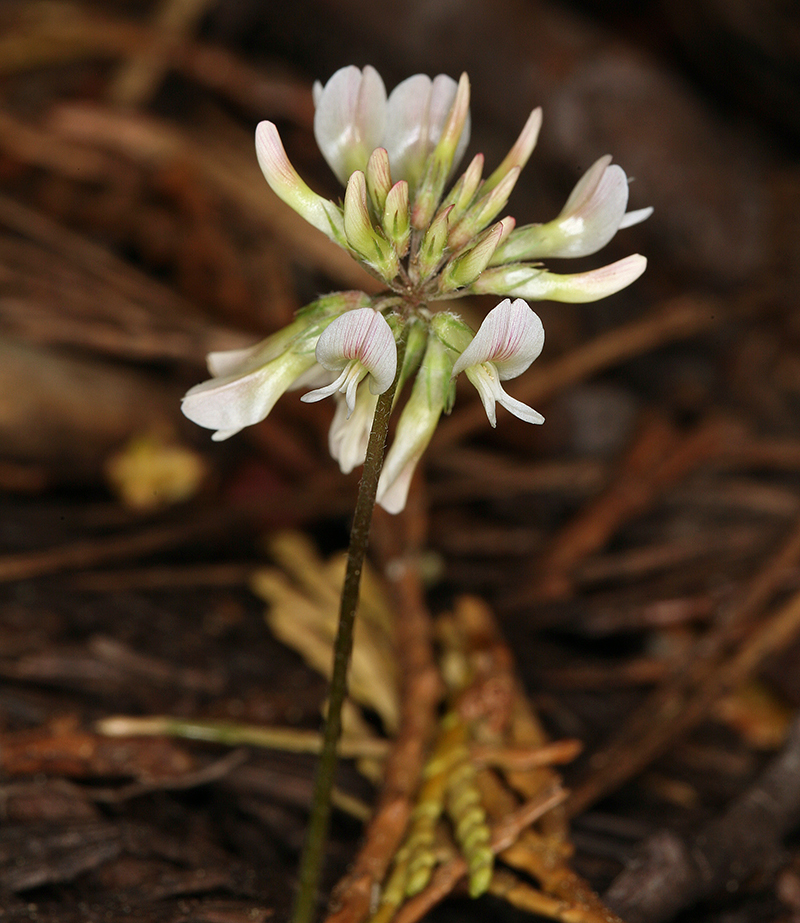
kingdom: Plantae
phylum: Tracheophyta
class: Magnoliopsida
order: Fabales
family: Fabaceae
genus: Trifolium
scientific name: Trifolium breweri
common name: Forest clover
